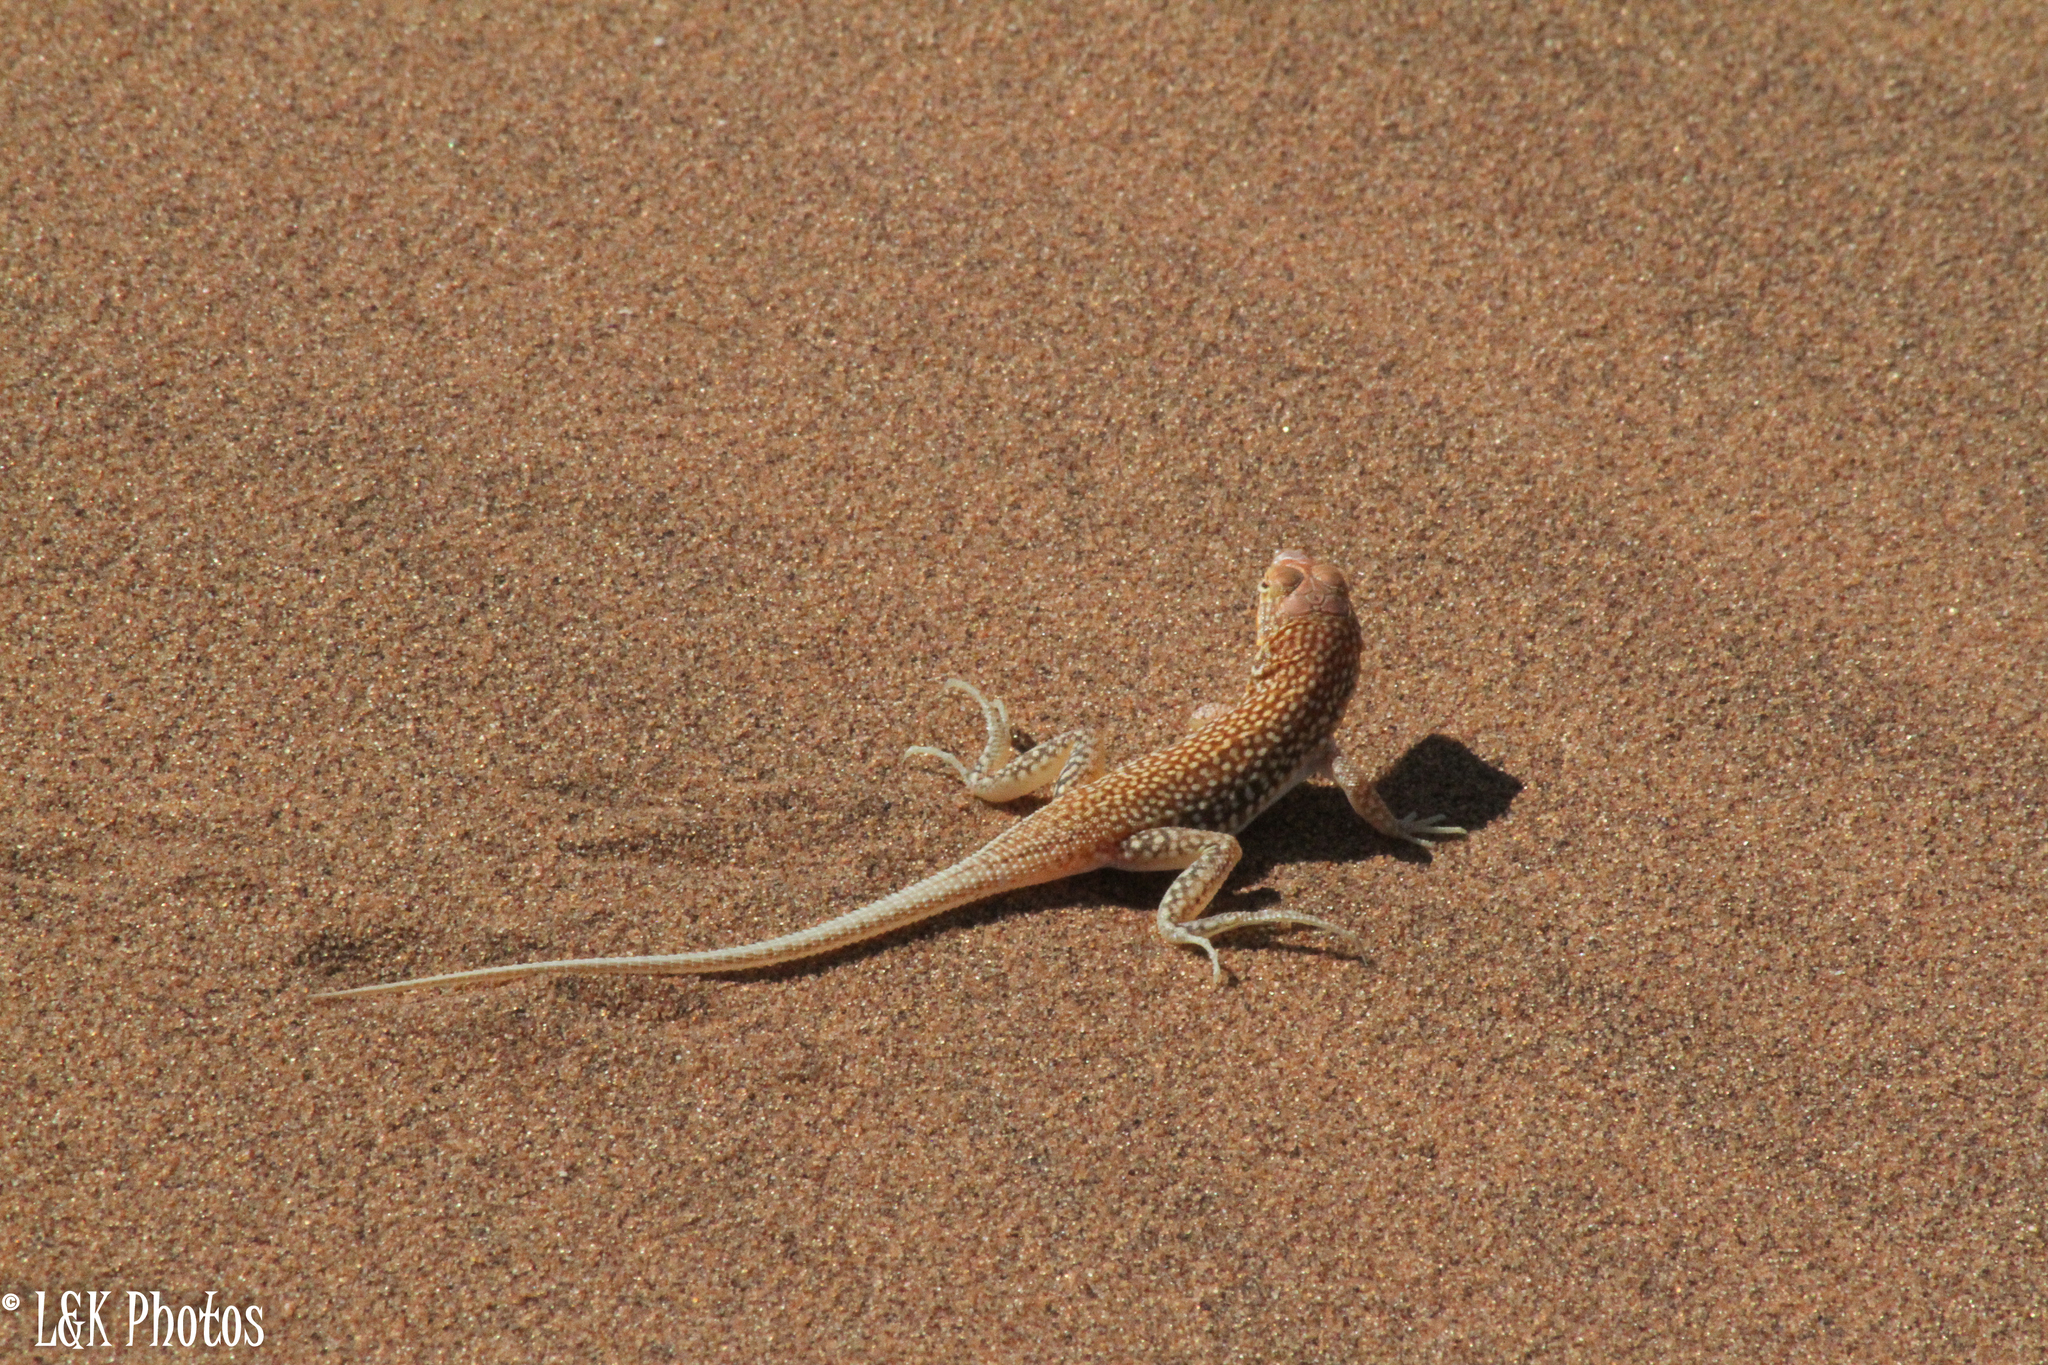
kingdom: Animalia
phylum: Chordata
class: Squamata
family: Lacertidae
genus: Meroles
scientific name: Meroles cuneirostris
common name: Wedge-snouted desert lizard
